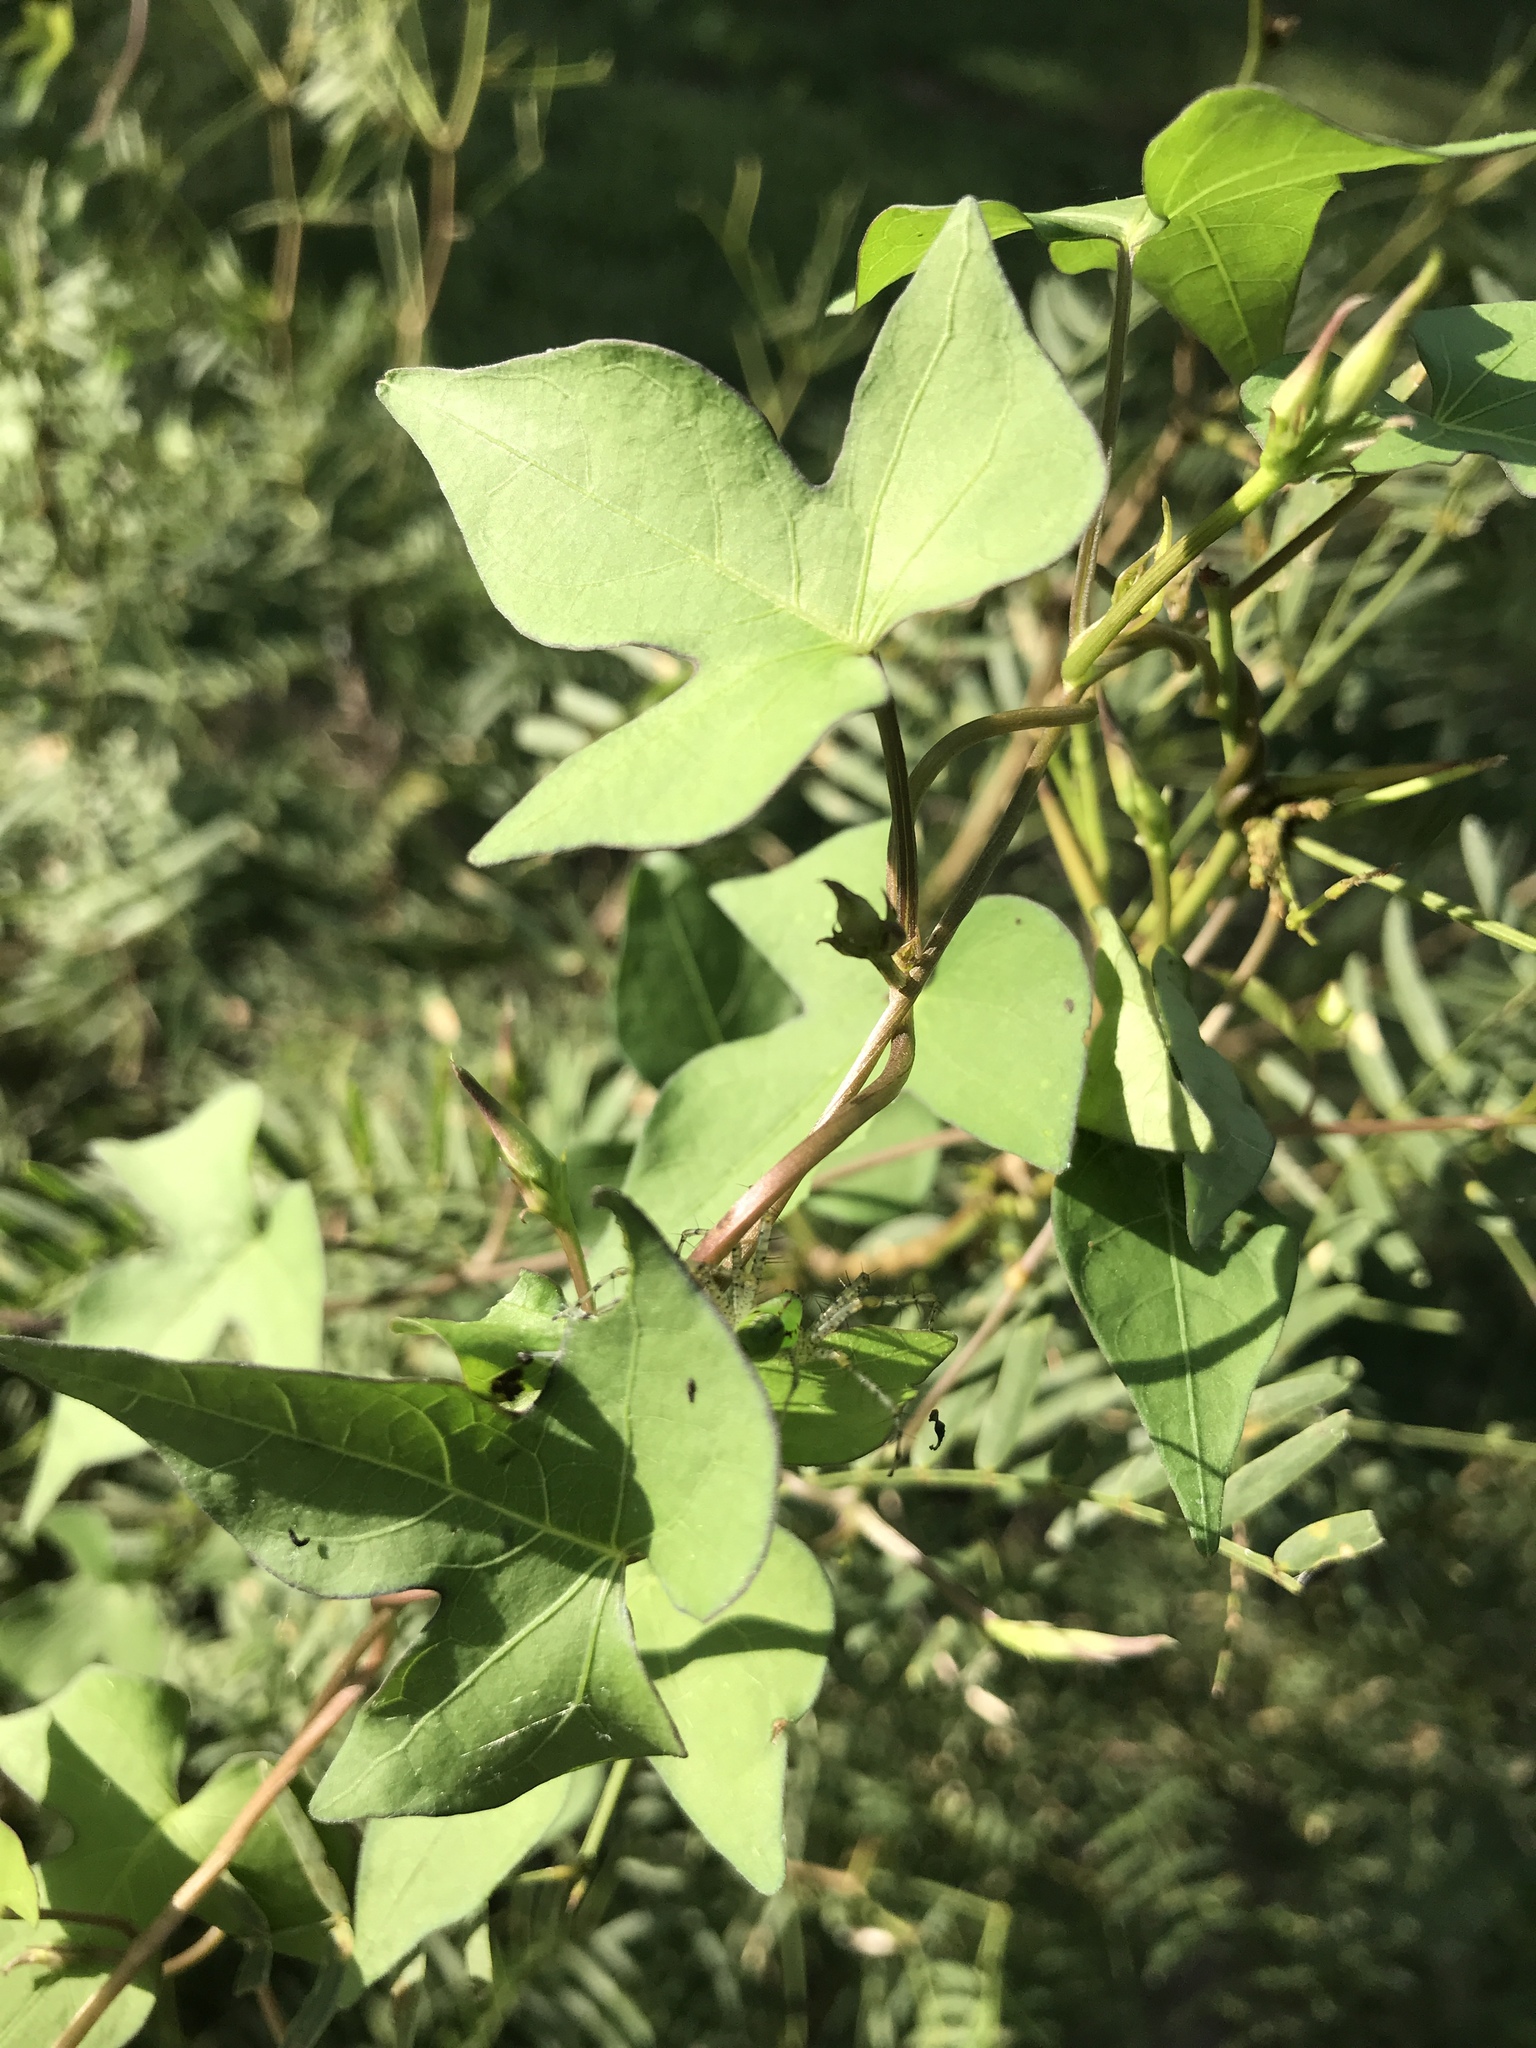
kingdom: Plantae
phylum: Tracheophyta
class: Magnoliopsida
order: Solanales
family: Convolvulaceae
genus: Ipomoea
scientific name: Ipomoea cordatotriloba
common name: Cotton morning glory
